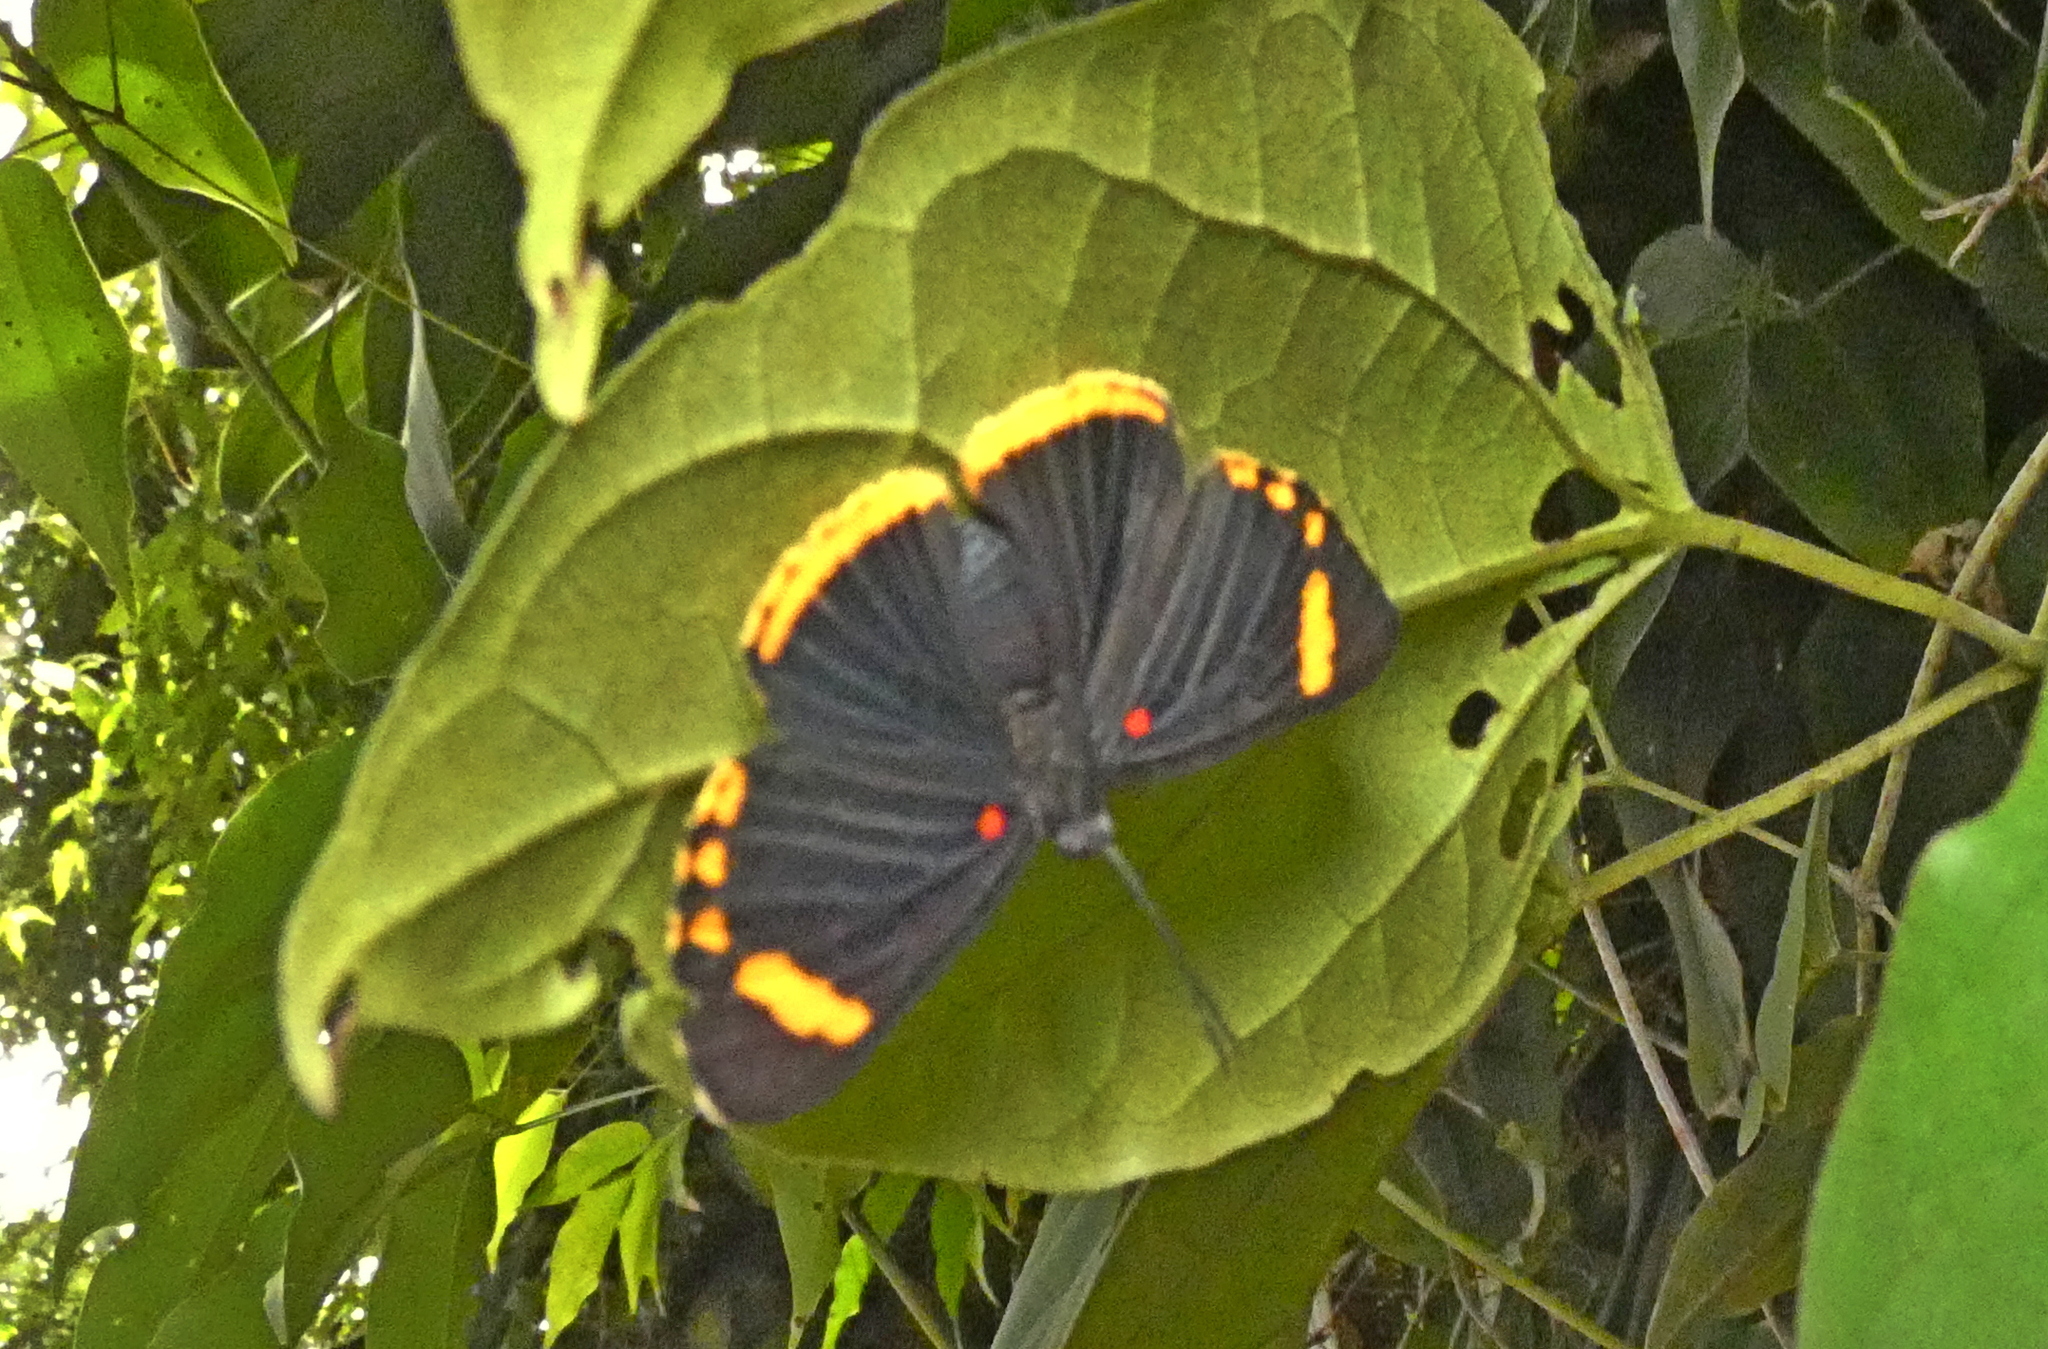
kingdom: Animalia
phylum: Arthropoda
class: Insecta
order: Lepidoptera
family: Lycaenidae
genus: Melanis
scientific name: Melanis xenia
